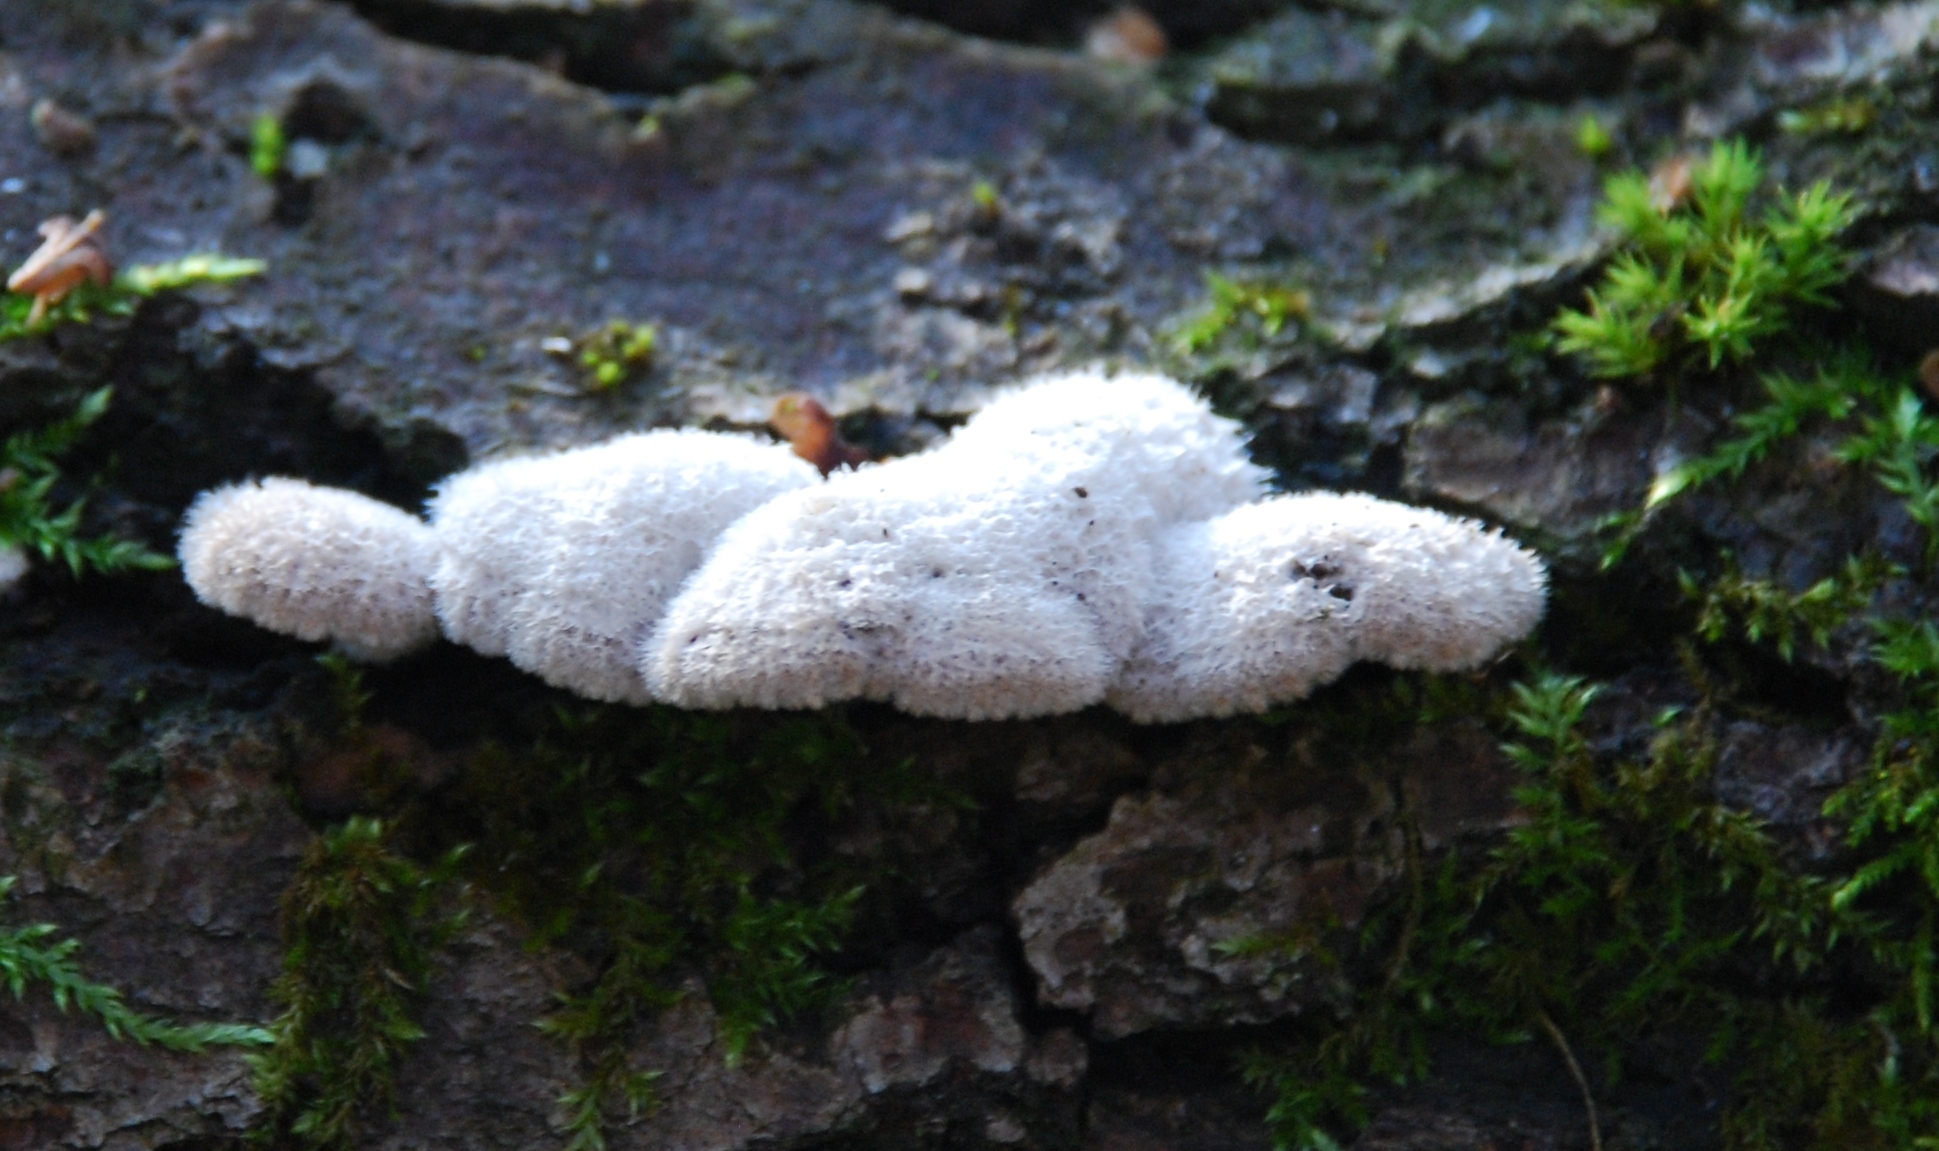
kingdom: Fungi
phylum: Basidiomycota
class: Agaricomycetes
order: Agaricales
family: Schizophyllaceae
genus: Schizophyllum
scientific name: Schizophyllum commune
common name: Common porecrust
